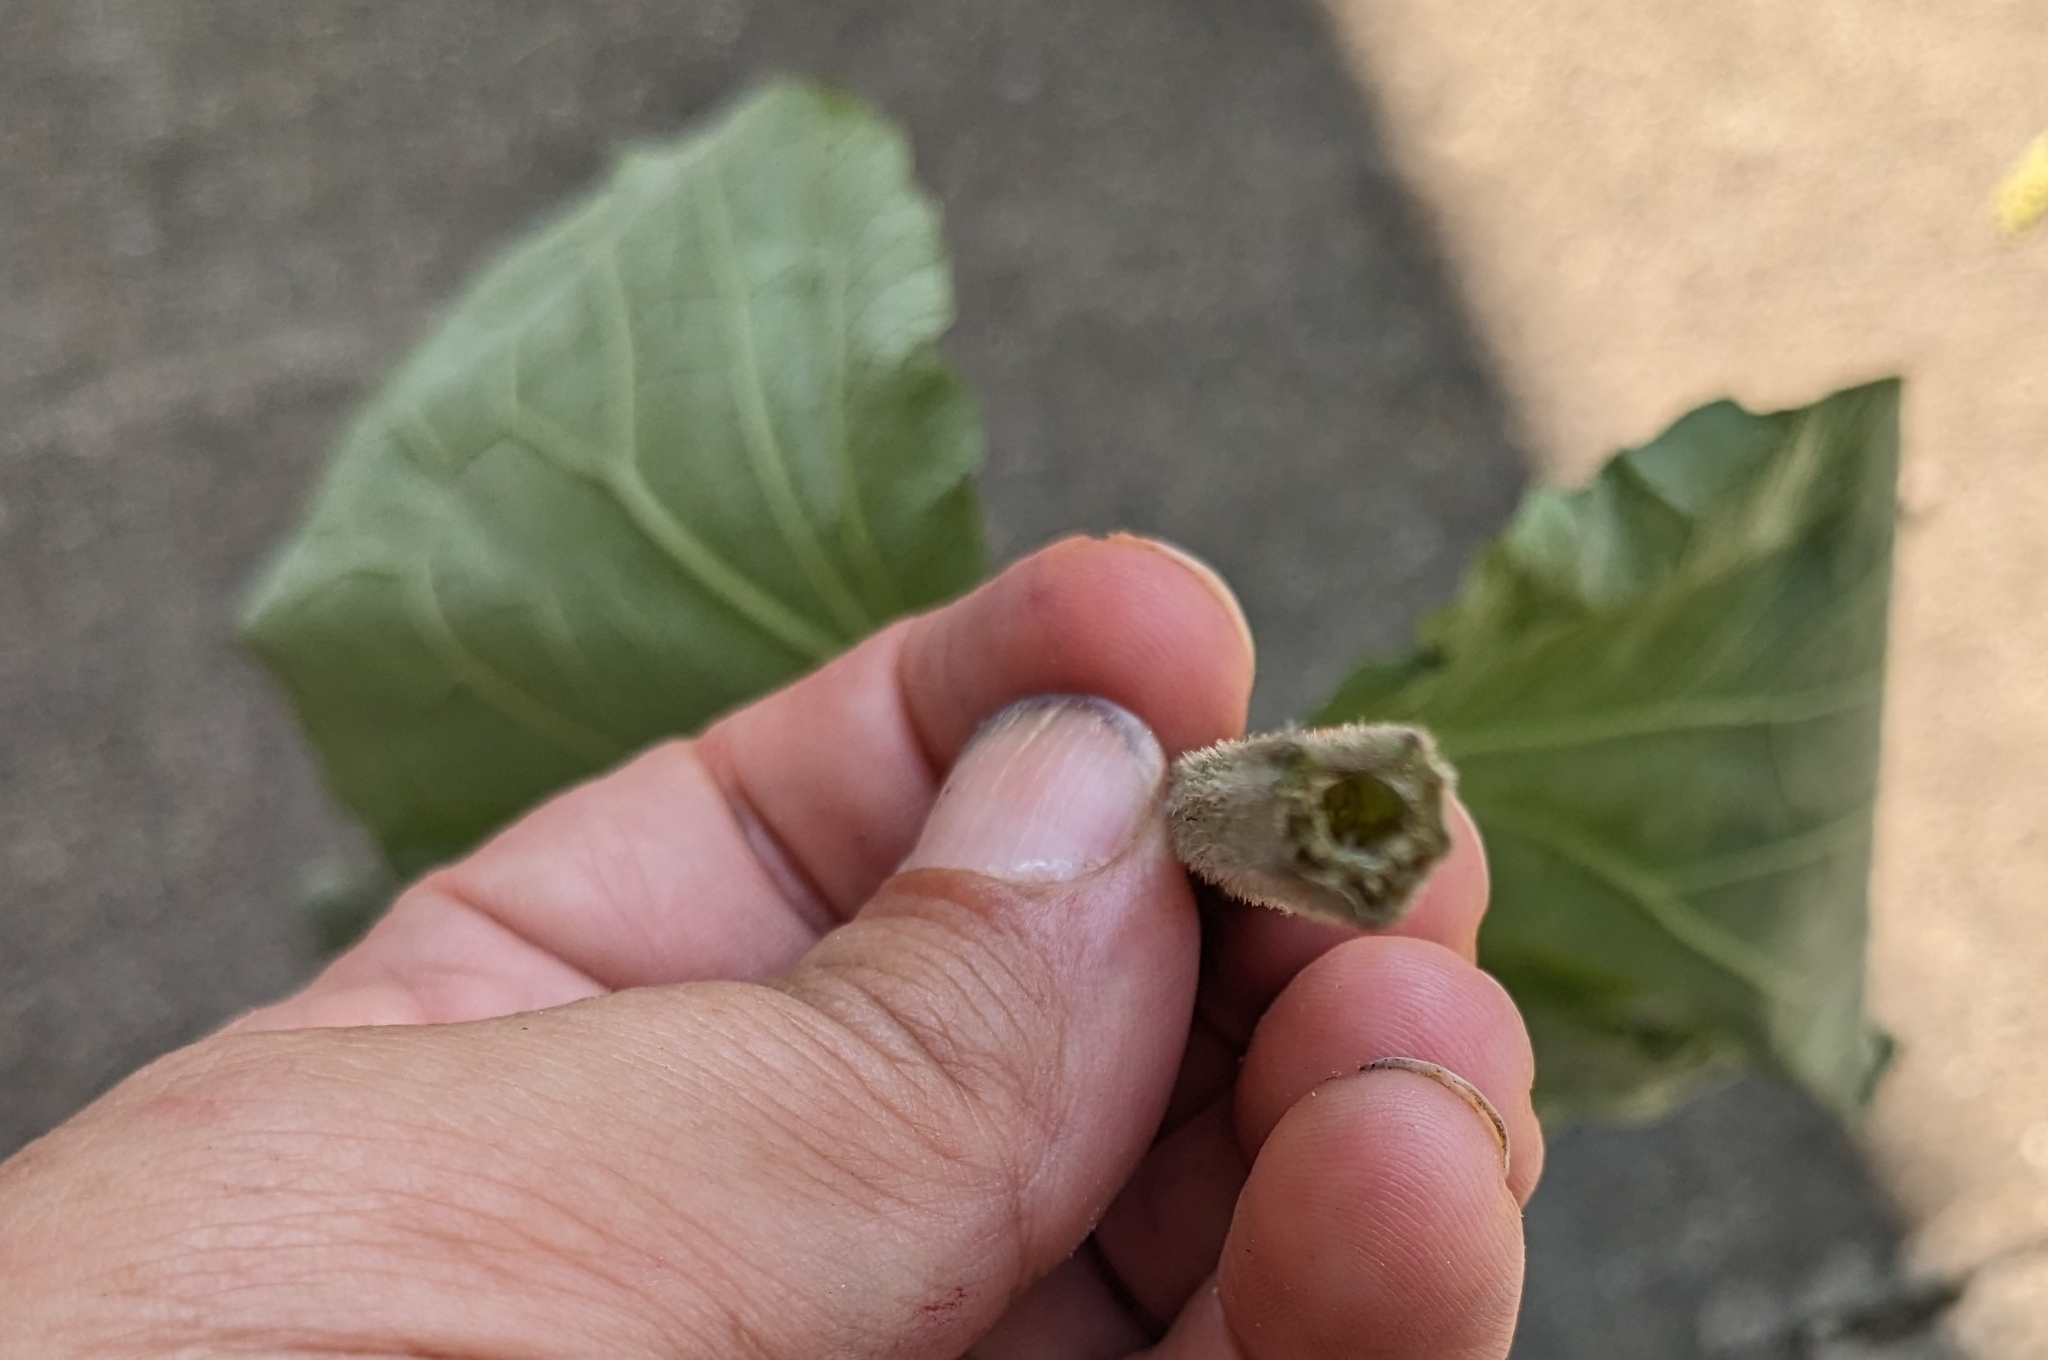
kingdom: Plantae
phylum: Tracheophyta
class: Magnoliopsida
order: Asterales
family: Asteraceae
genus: Arctium
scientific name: Arctium minus
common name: Lesser burdock
